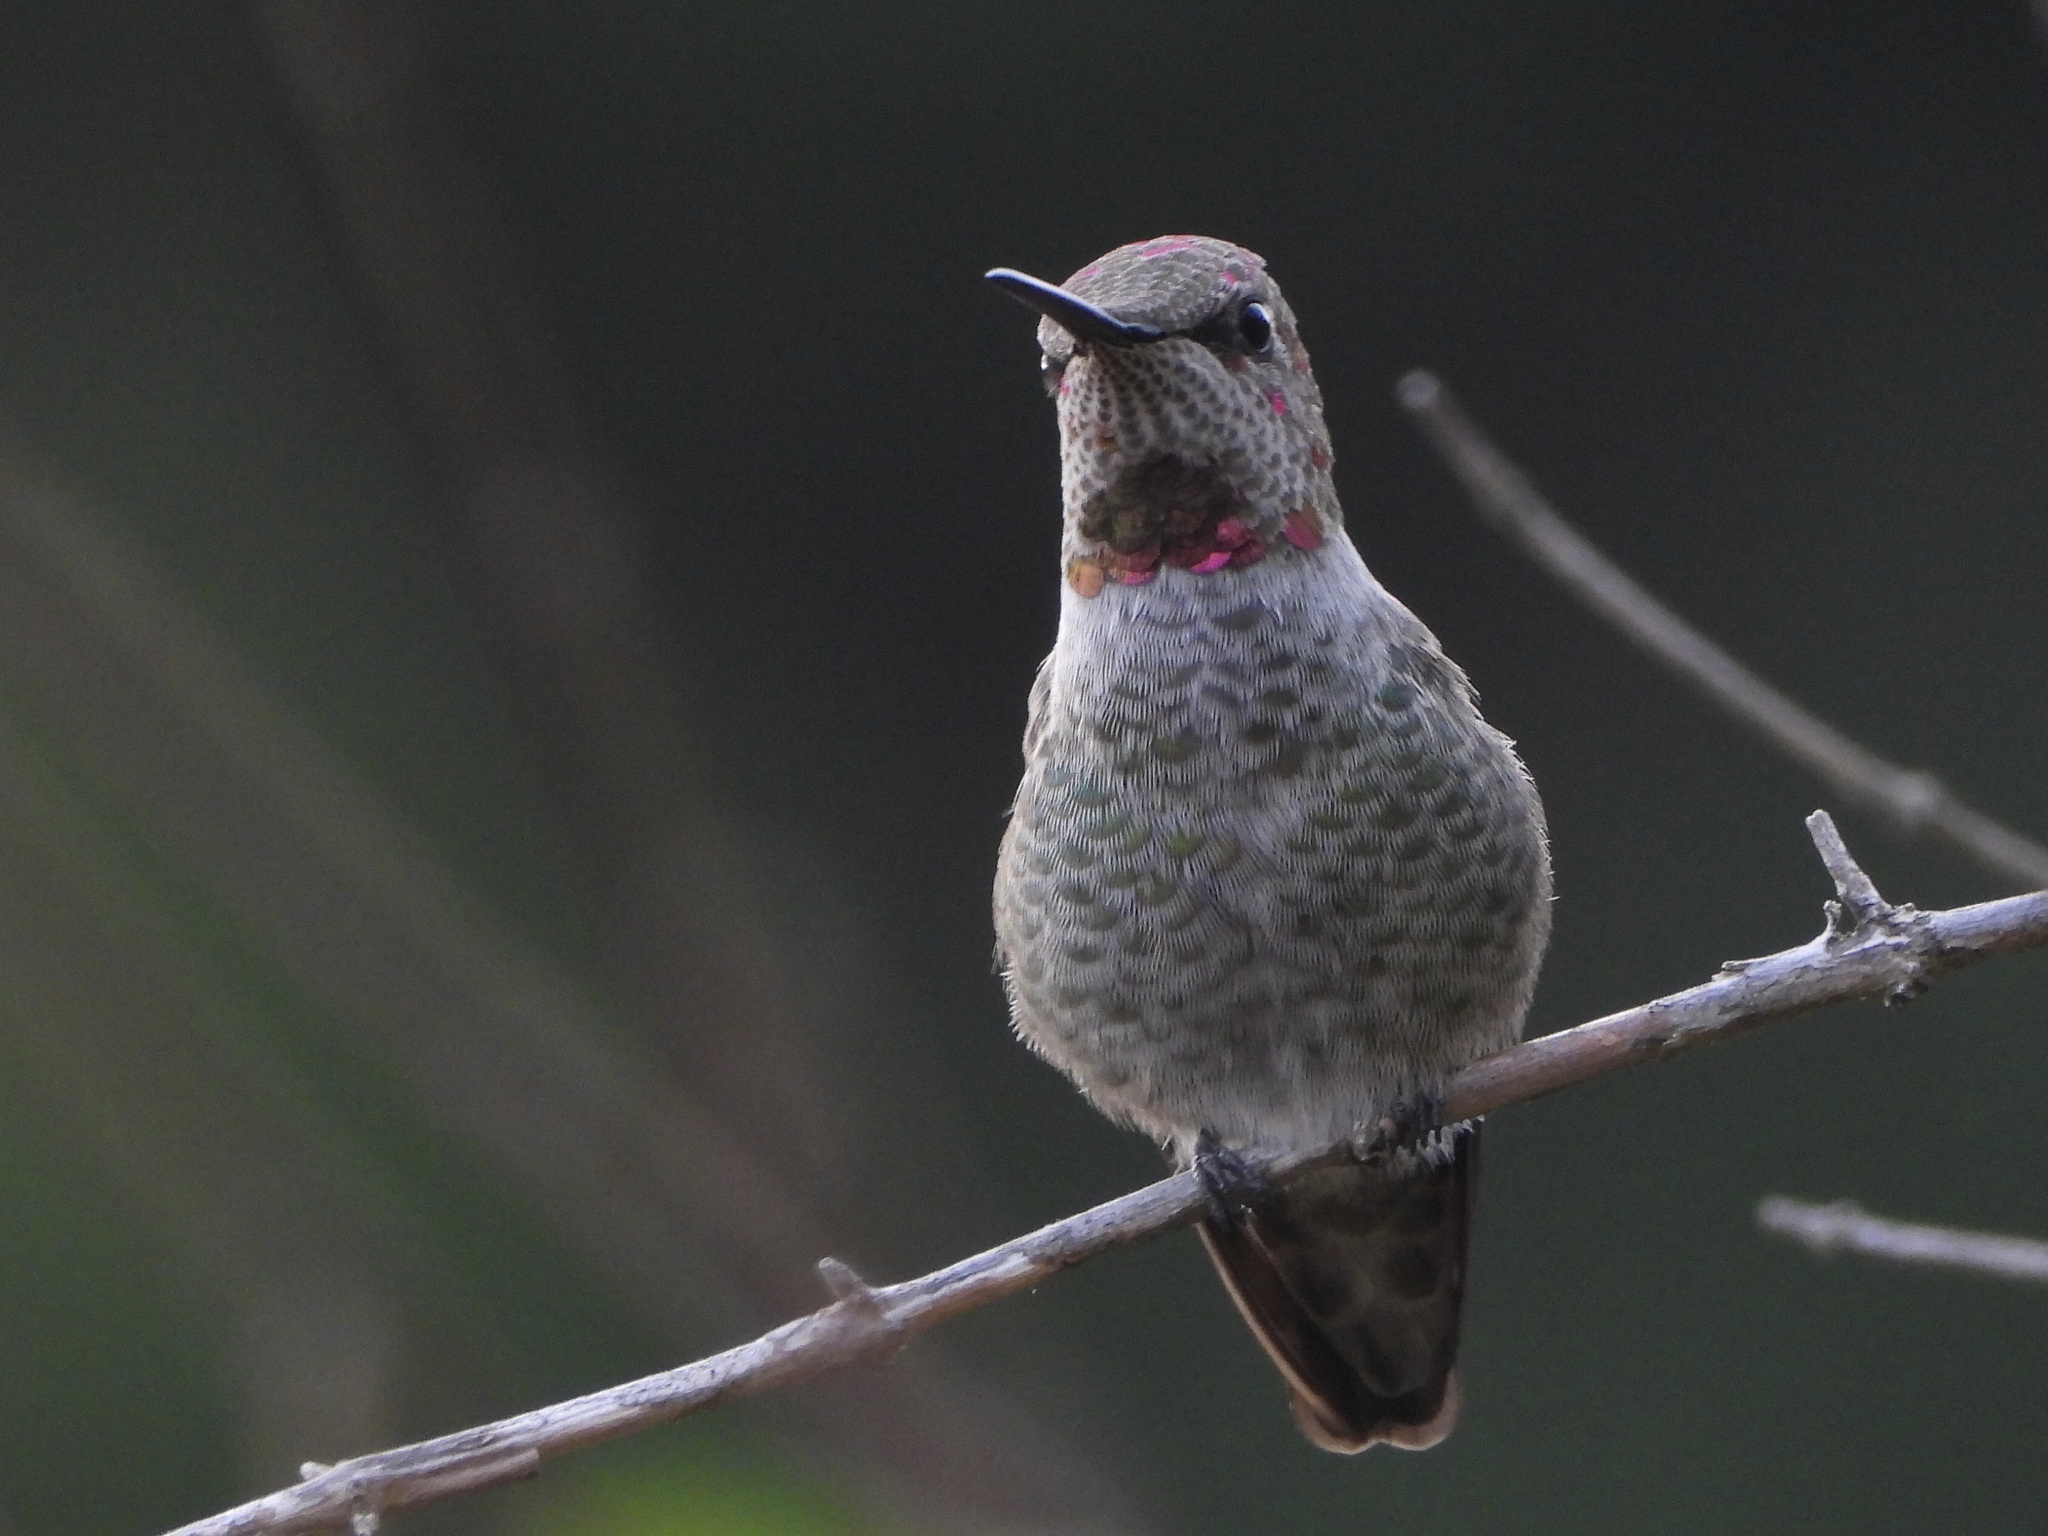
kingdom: Animalia
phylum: Chordata
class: Aves
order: Apodiformes
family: Trochilidae
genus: Calypte
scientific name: Calypte anna
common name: Anna's hummingbird
